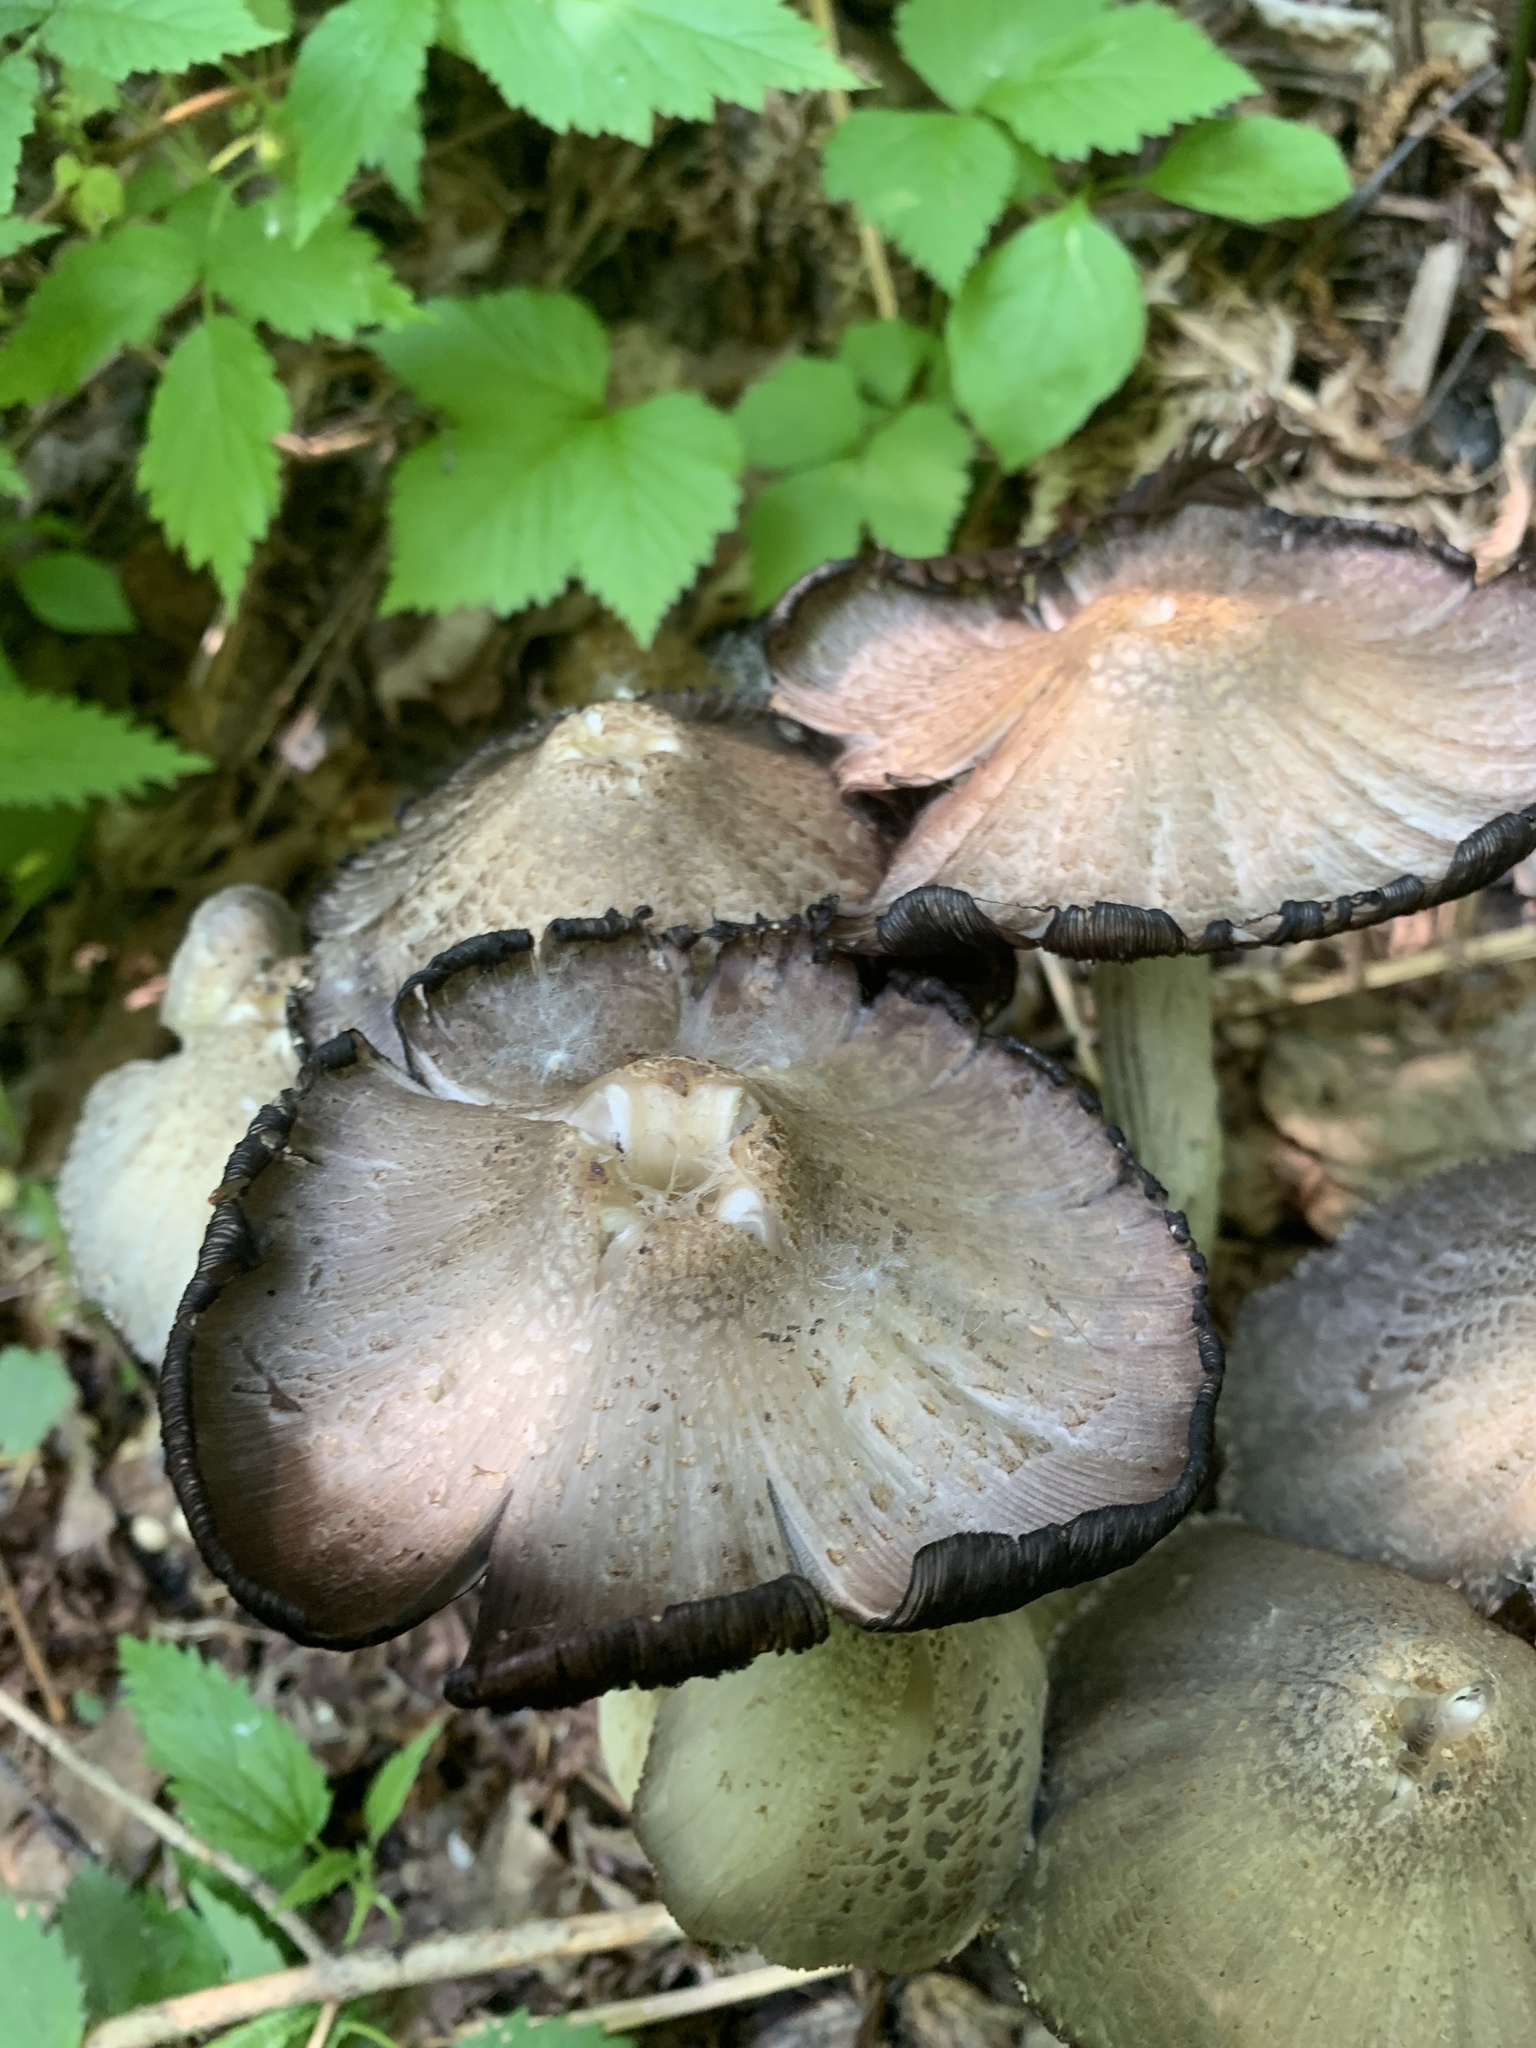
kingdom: Fungi
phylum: Basidiomycota
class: Agaricomycetes
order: Agaricales
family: Psathyrellaceae
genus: Coprinopsis
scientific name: Coprinopsis atramentaria
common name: Common ink-cap
